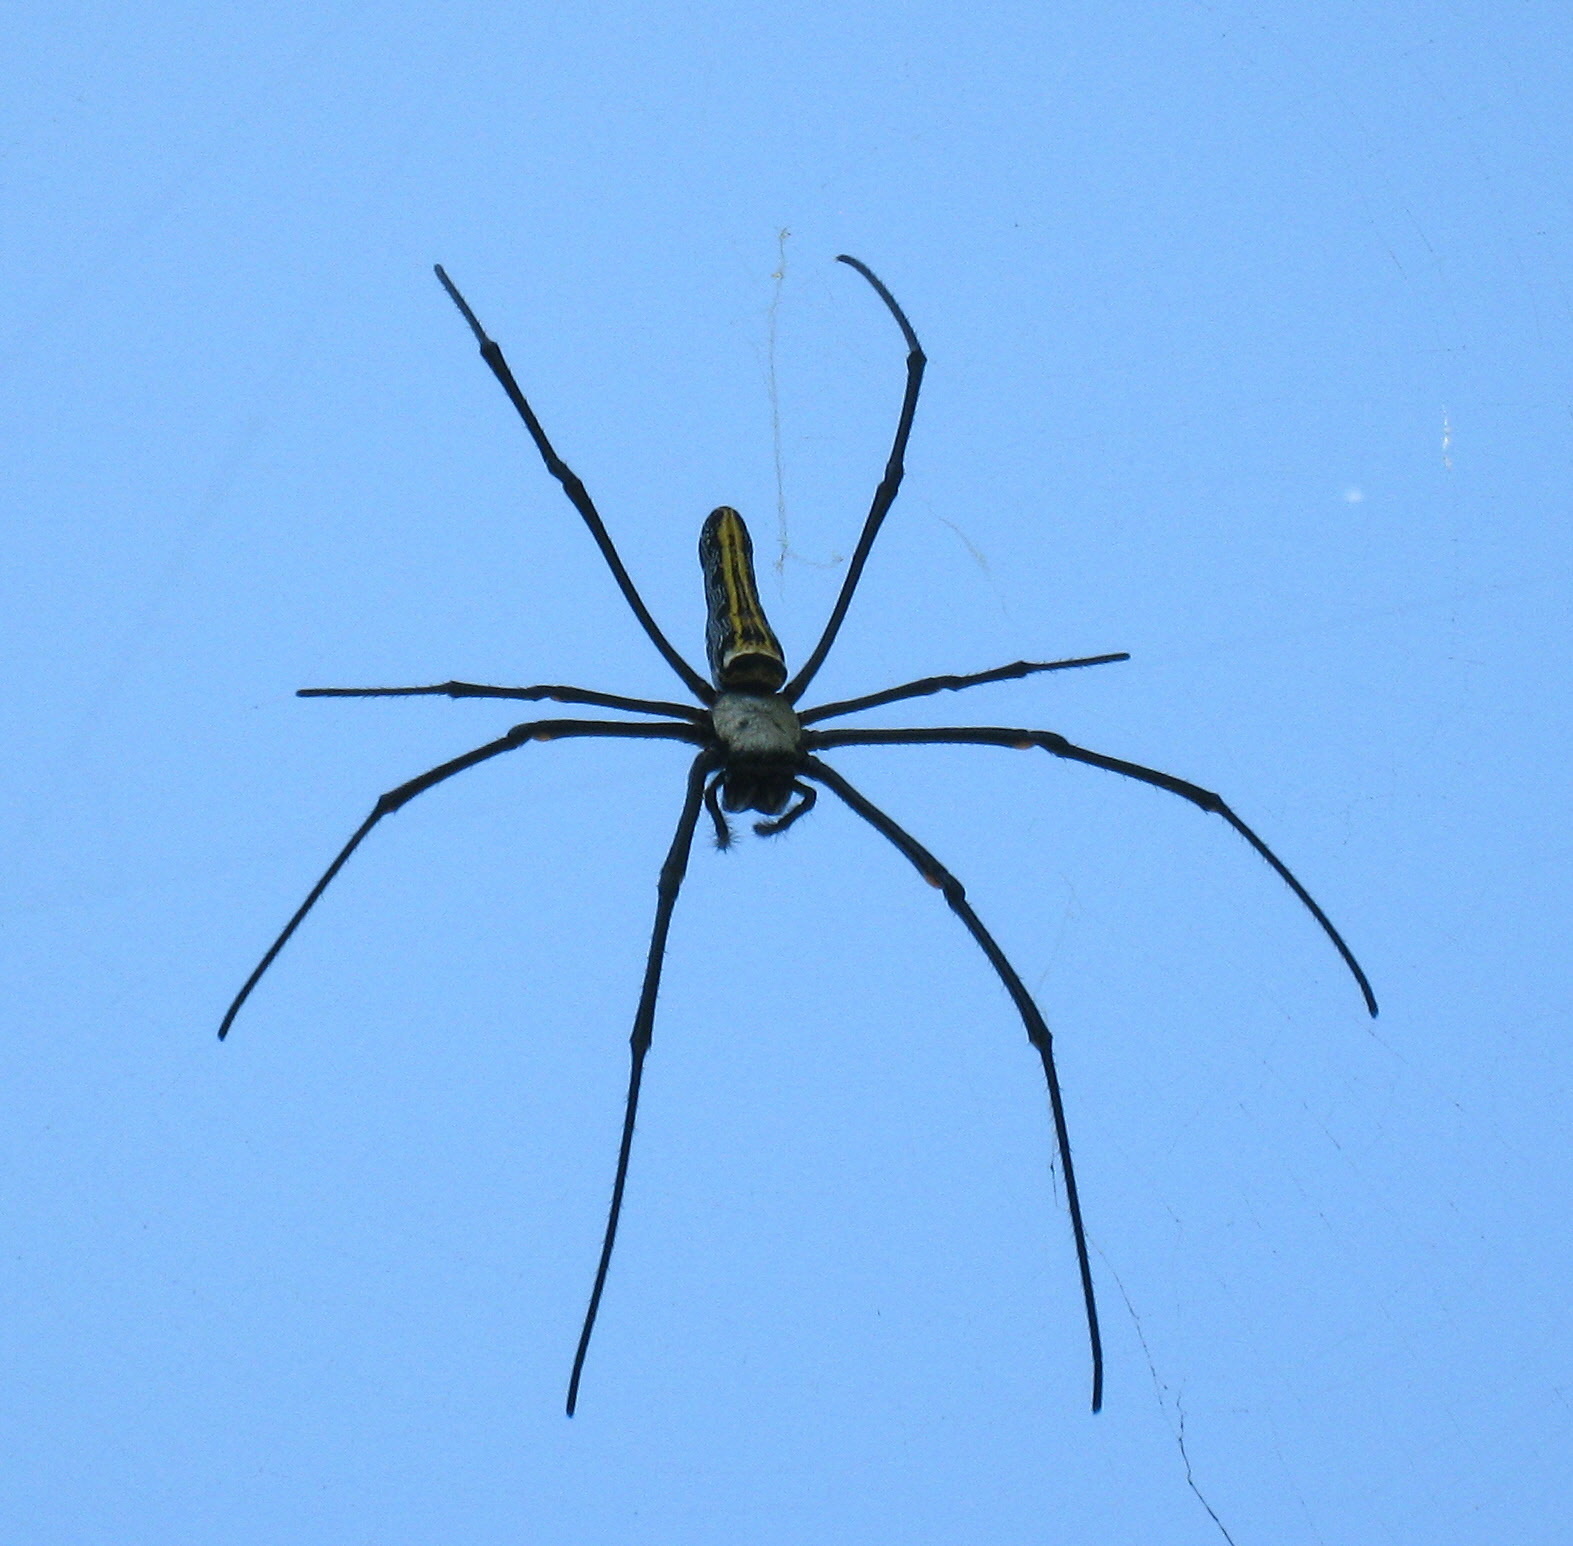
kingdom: Animalia
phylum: Arthropoda
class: Arachnida
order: Araneae
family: Araneidae
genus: Nephila
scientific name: Nephila pilipes
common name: Giant golden orb weaver
